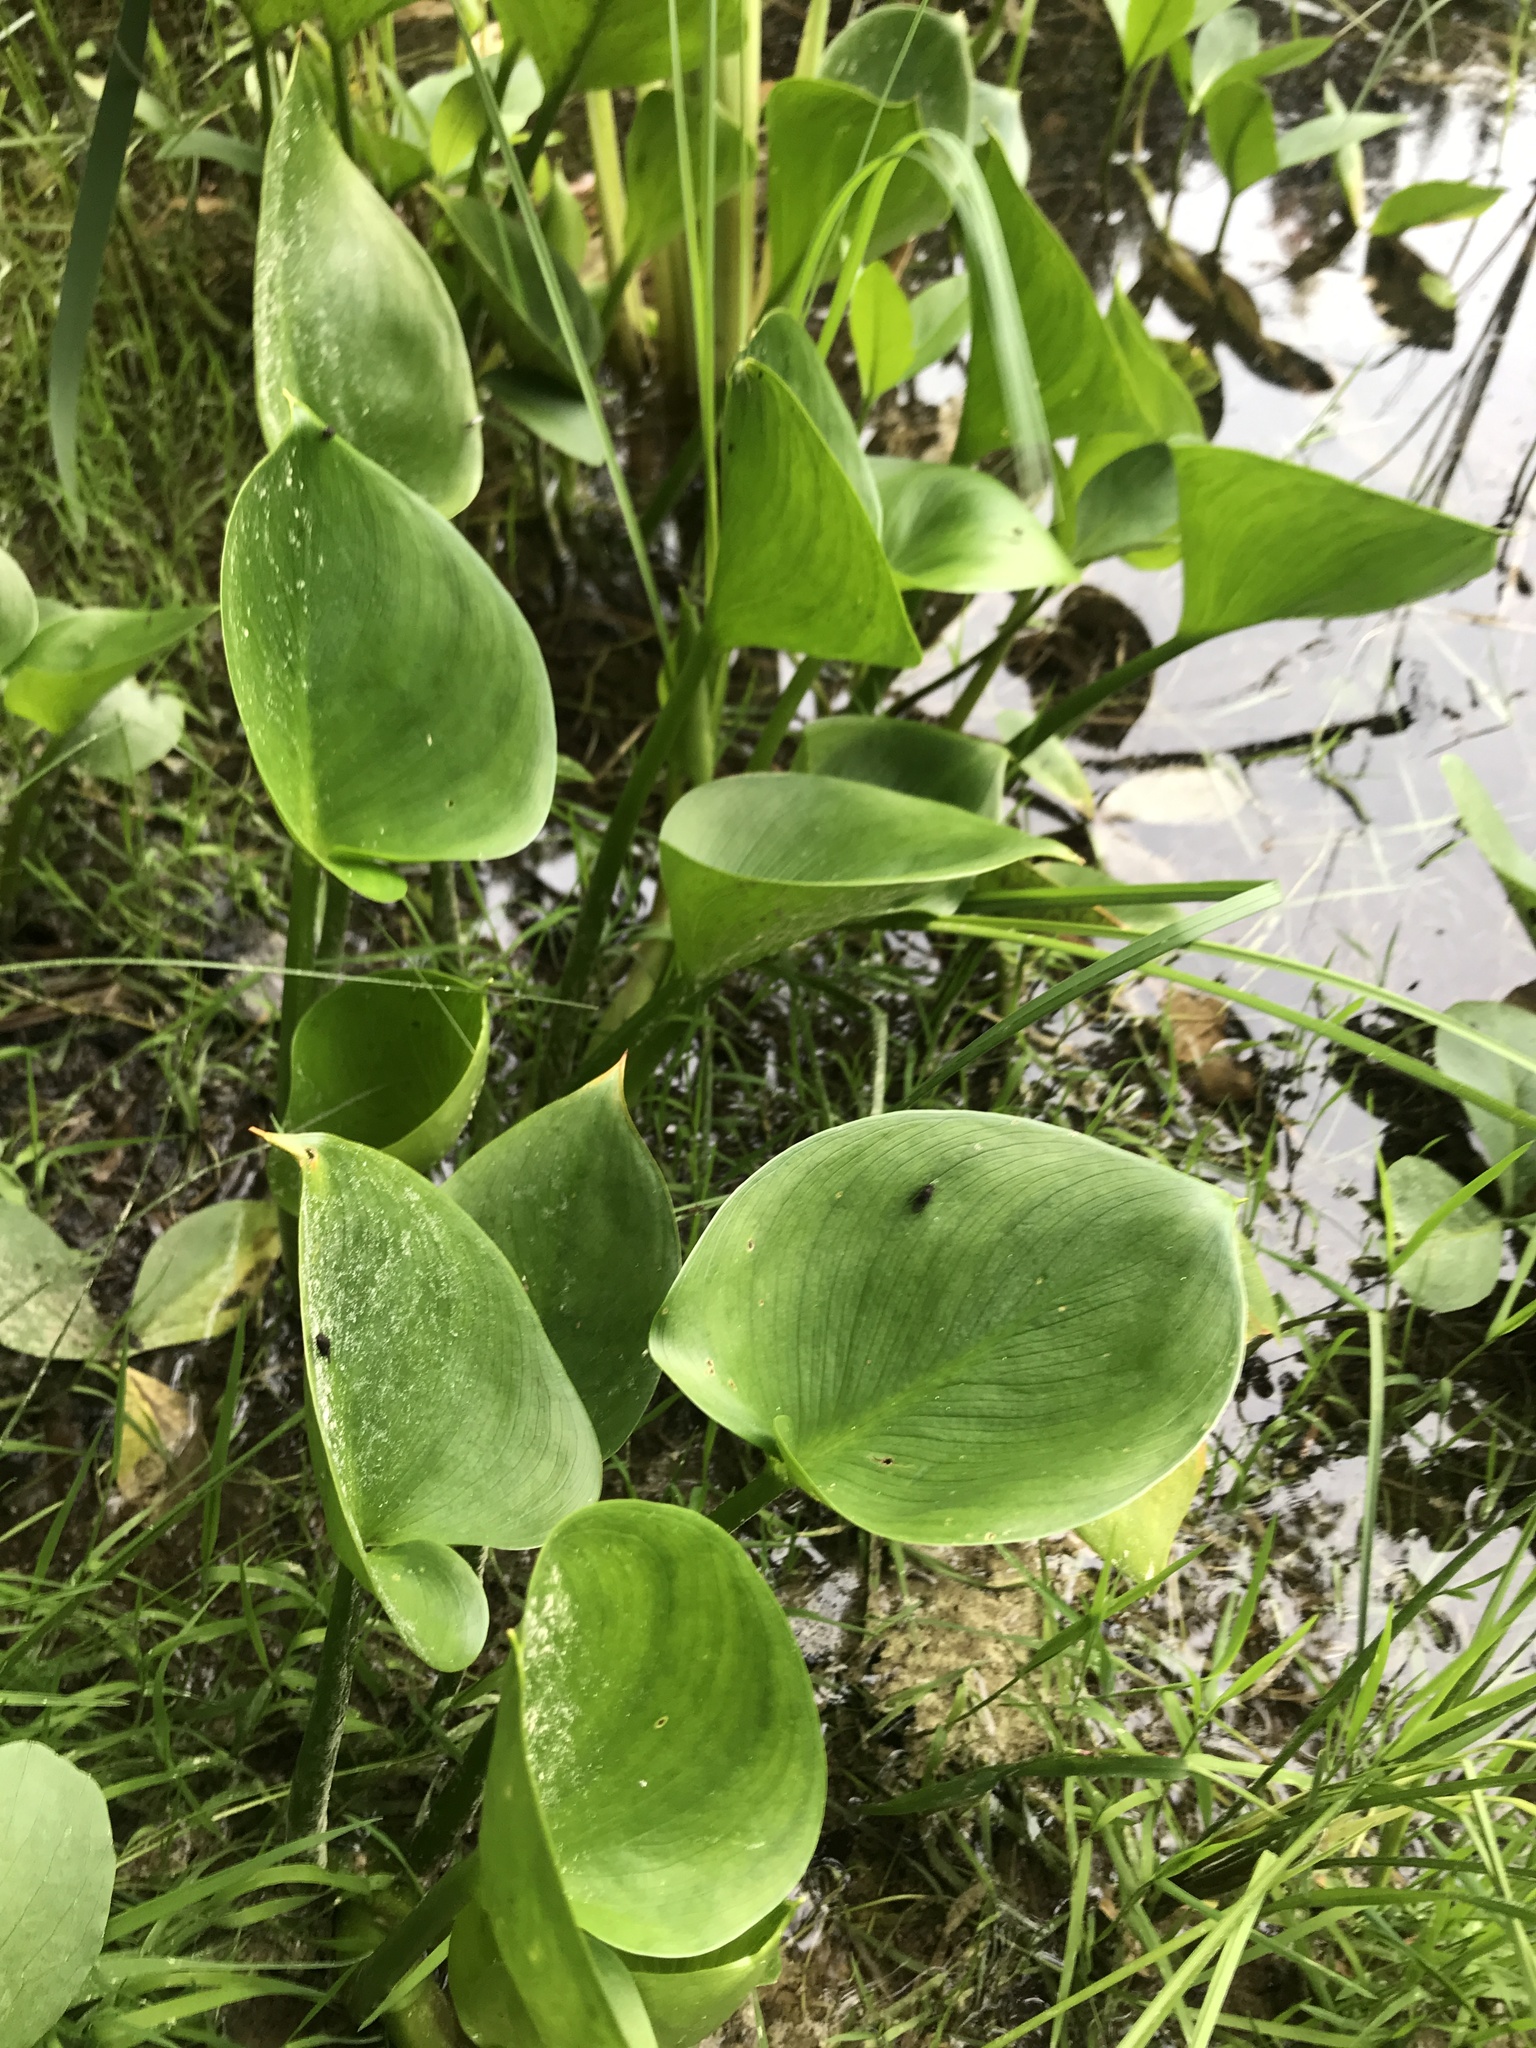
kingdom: Plantae
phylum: Tracheophyta
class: Liliopsida
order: Alismatales
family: Araceae
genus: Calla
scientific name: Calla palustris
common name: Bog arum
